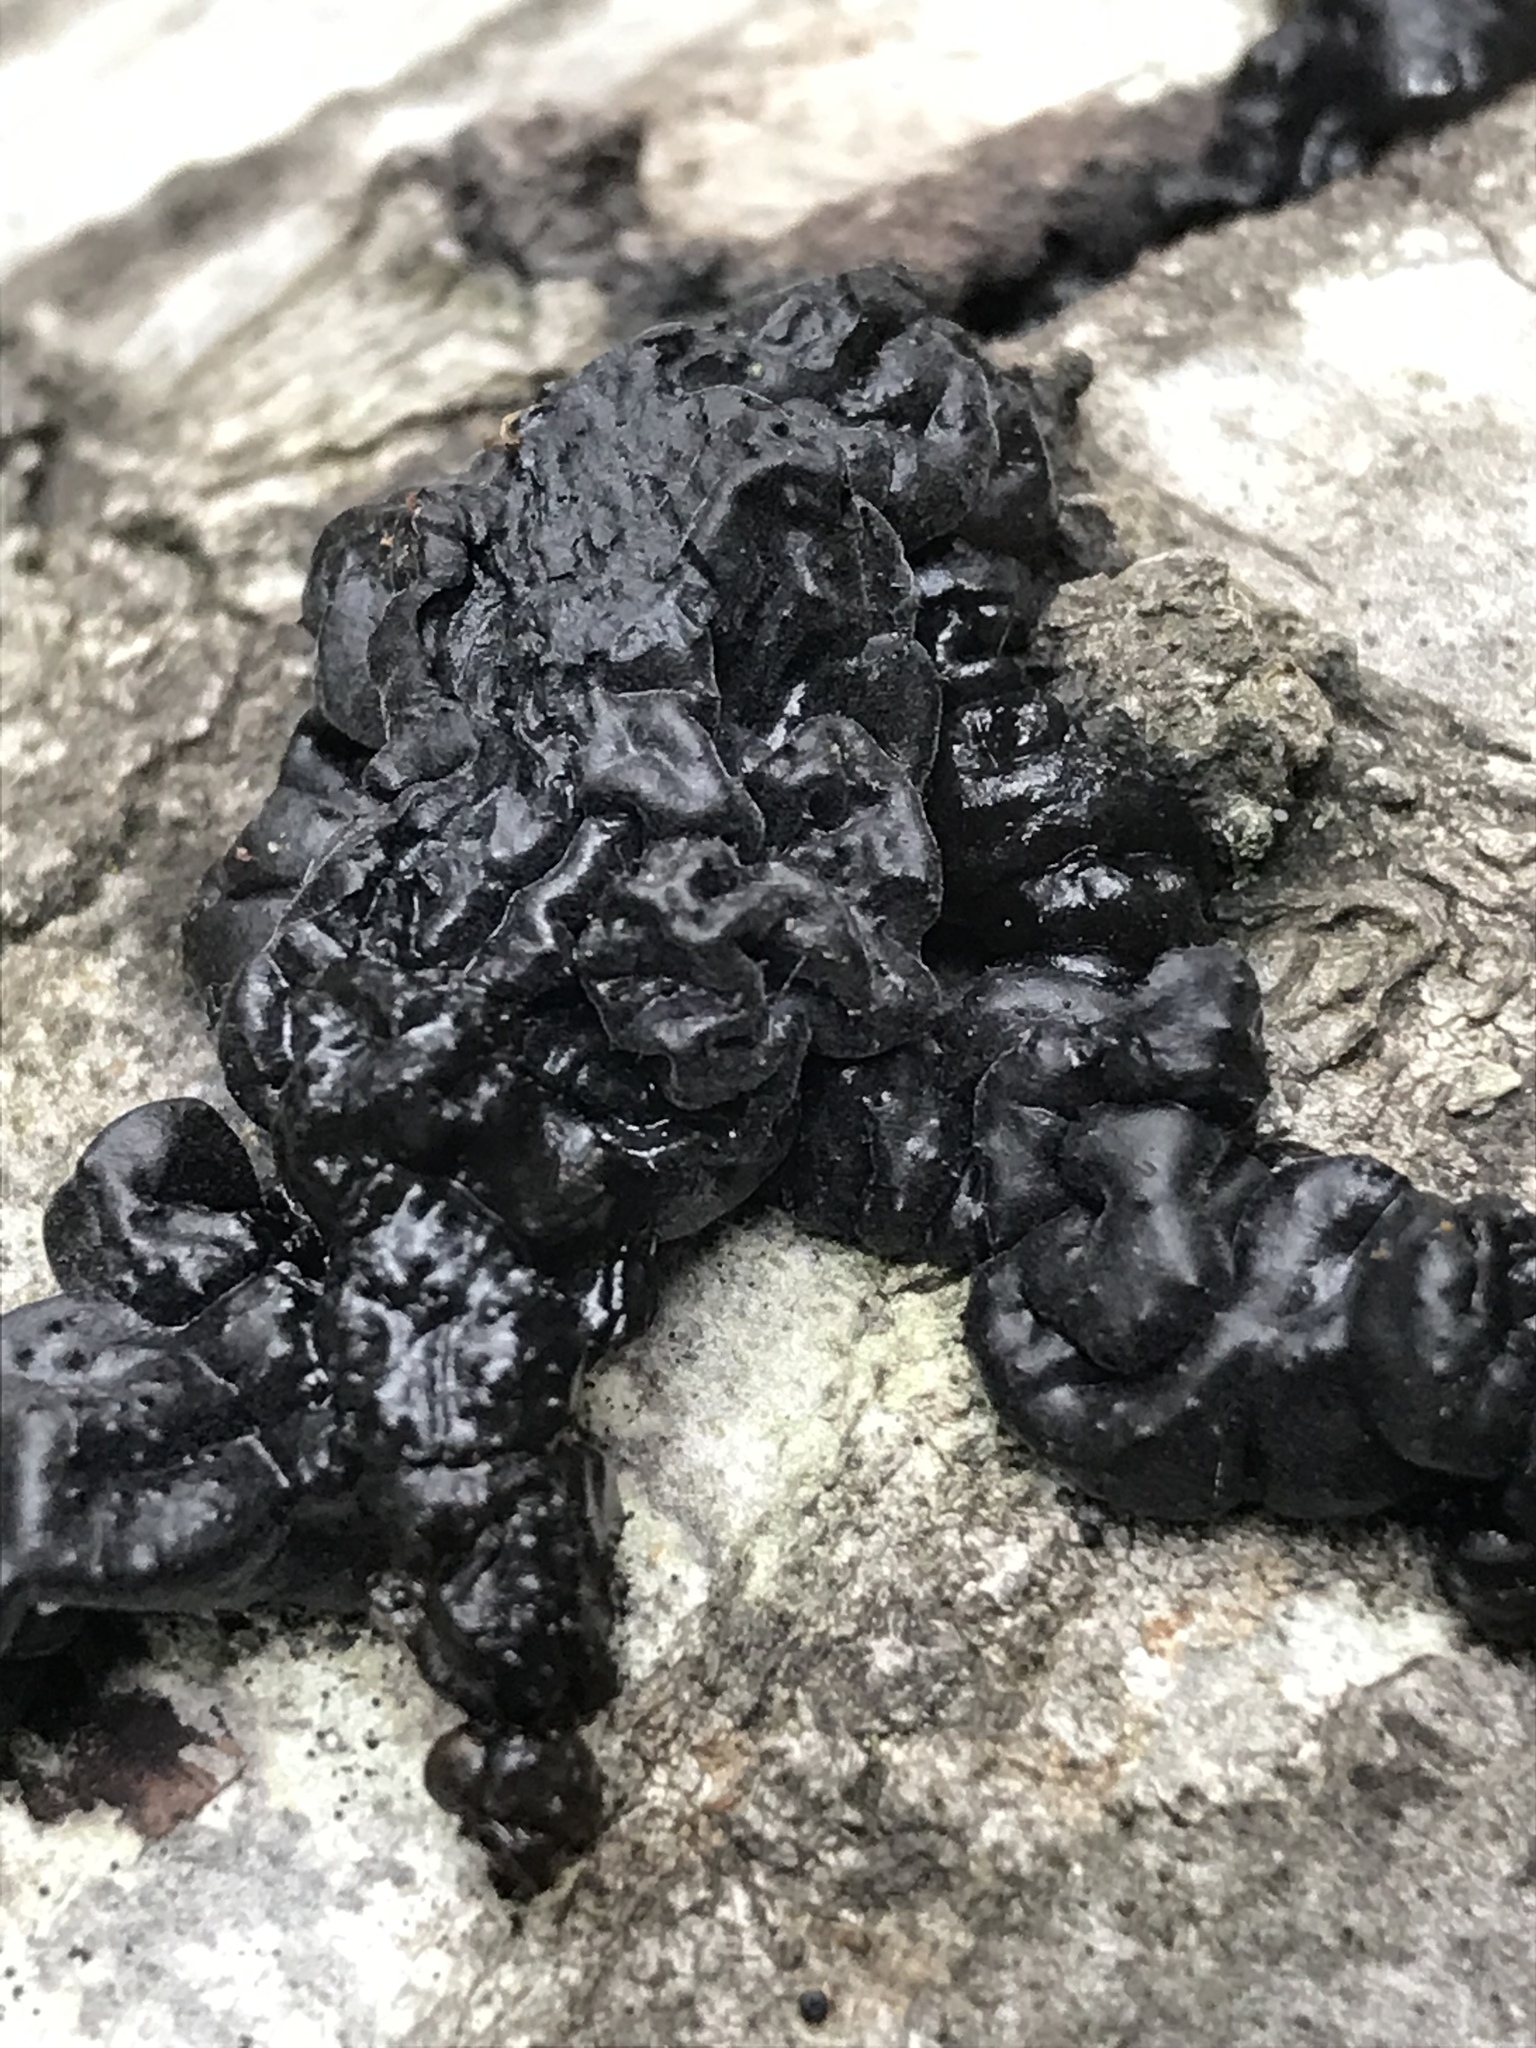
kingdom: Fungi
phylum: Basidiomycota
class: Agaricomycetes
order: Auriculariales
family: Auriculariaceae
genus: Exidia
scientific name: Exidia glandulosa
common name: Witches' butter
